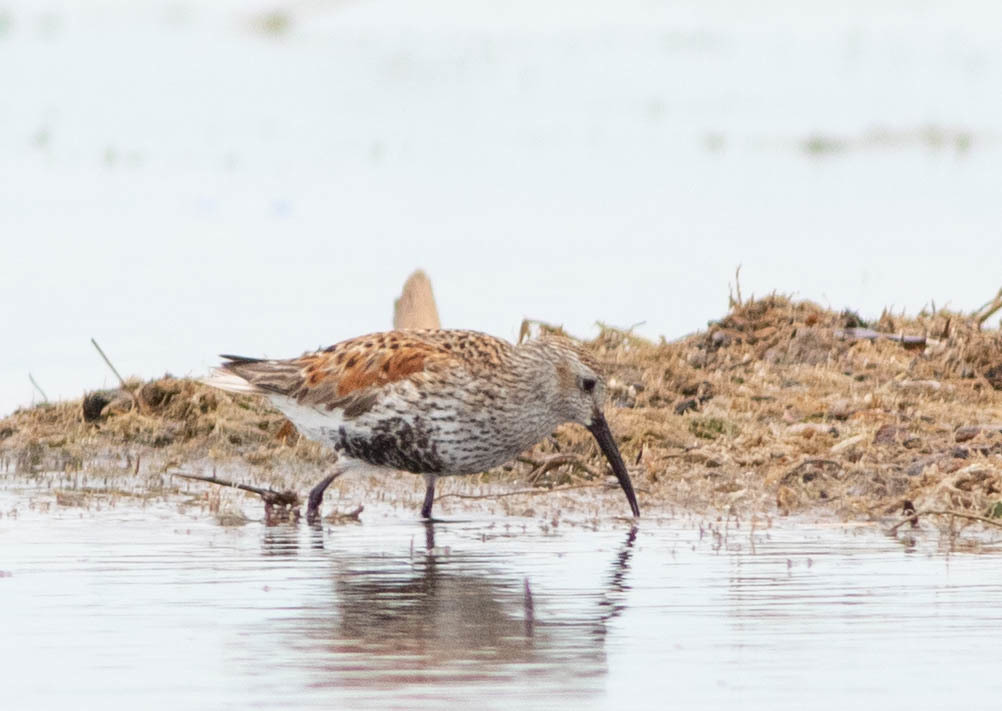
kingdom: Animalia
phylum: Chordata
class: Aves
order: Charadriiformes
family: Scolopacidae
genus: Calidris
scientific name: Calidris alpina
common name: Dunlin
